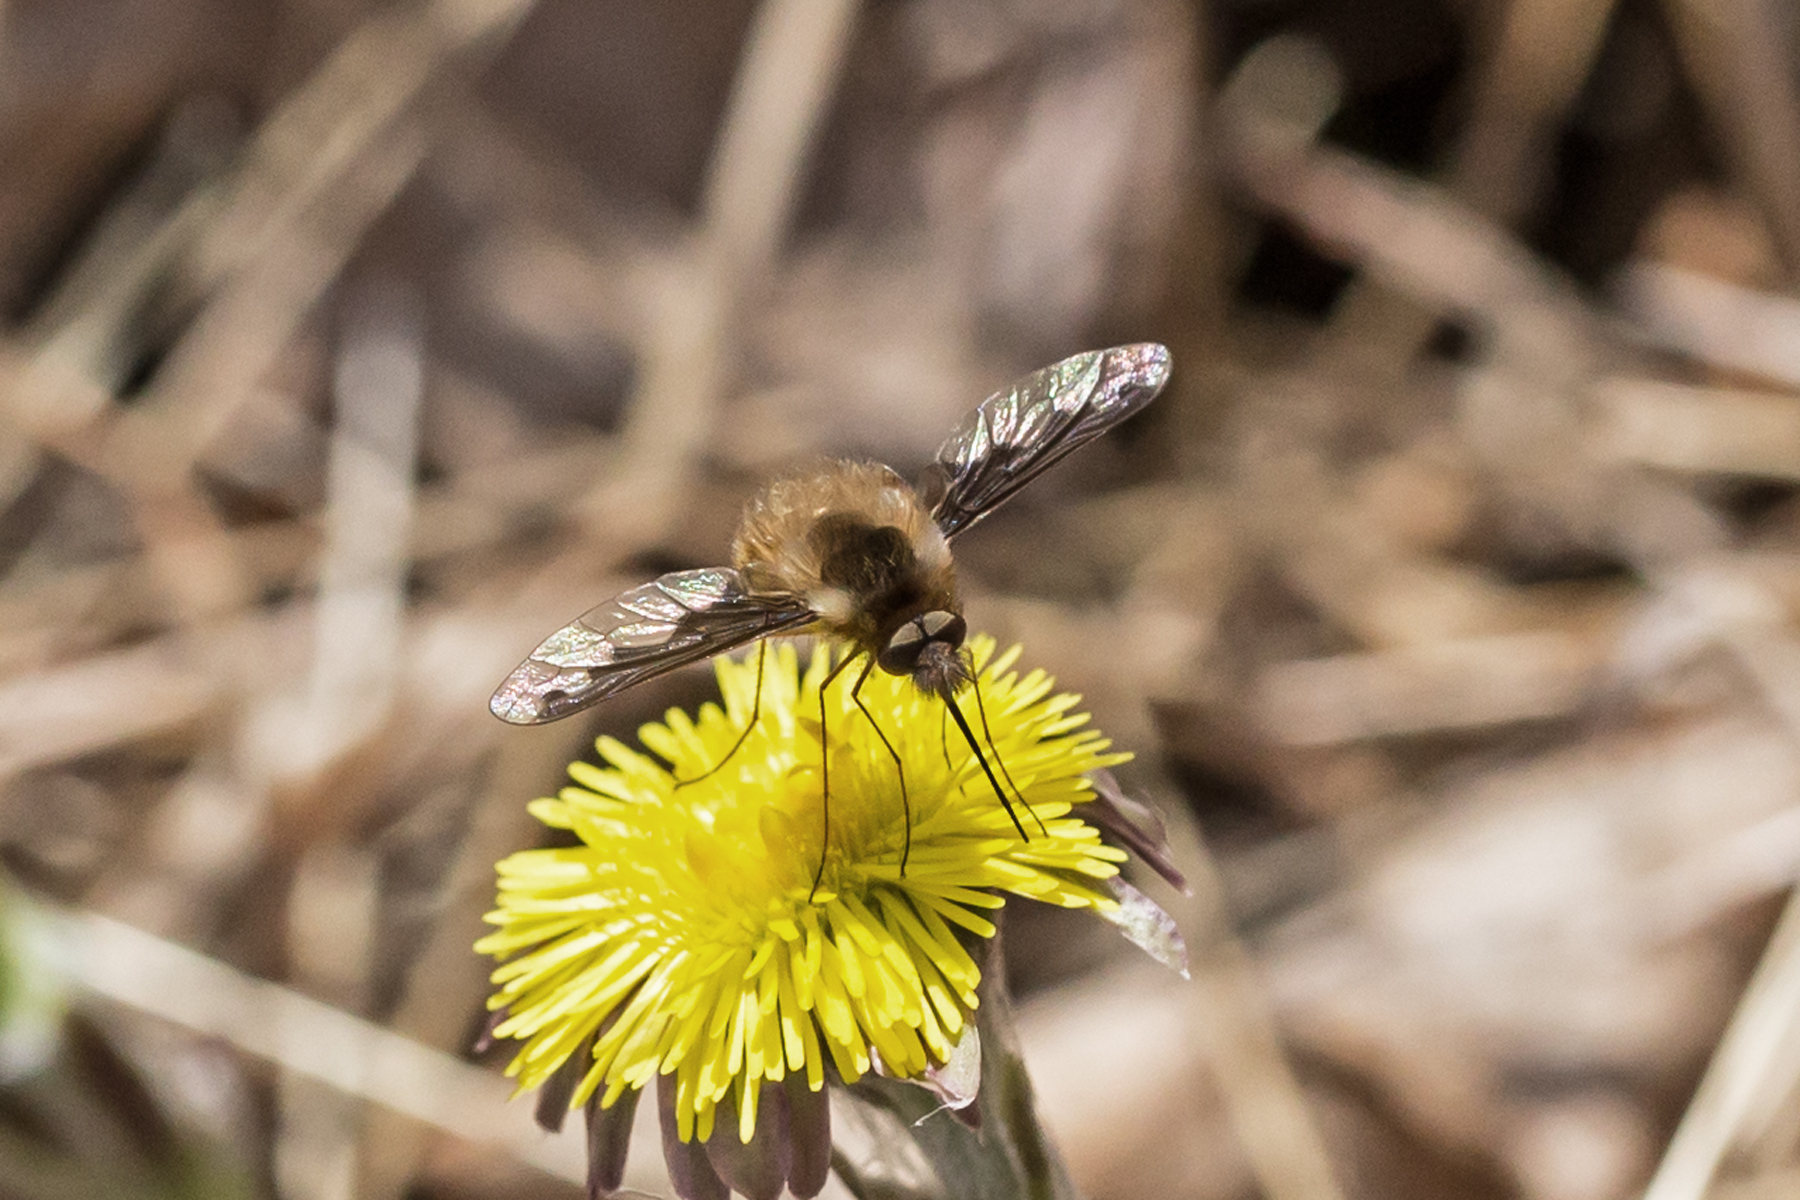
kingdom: Animalia
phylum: Arthropoda
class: Insecta
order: Diptera
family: Bombyliidae
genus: Bombylius
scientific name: Bombylius major
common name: Bee fly
